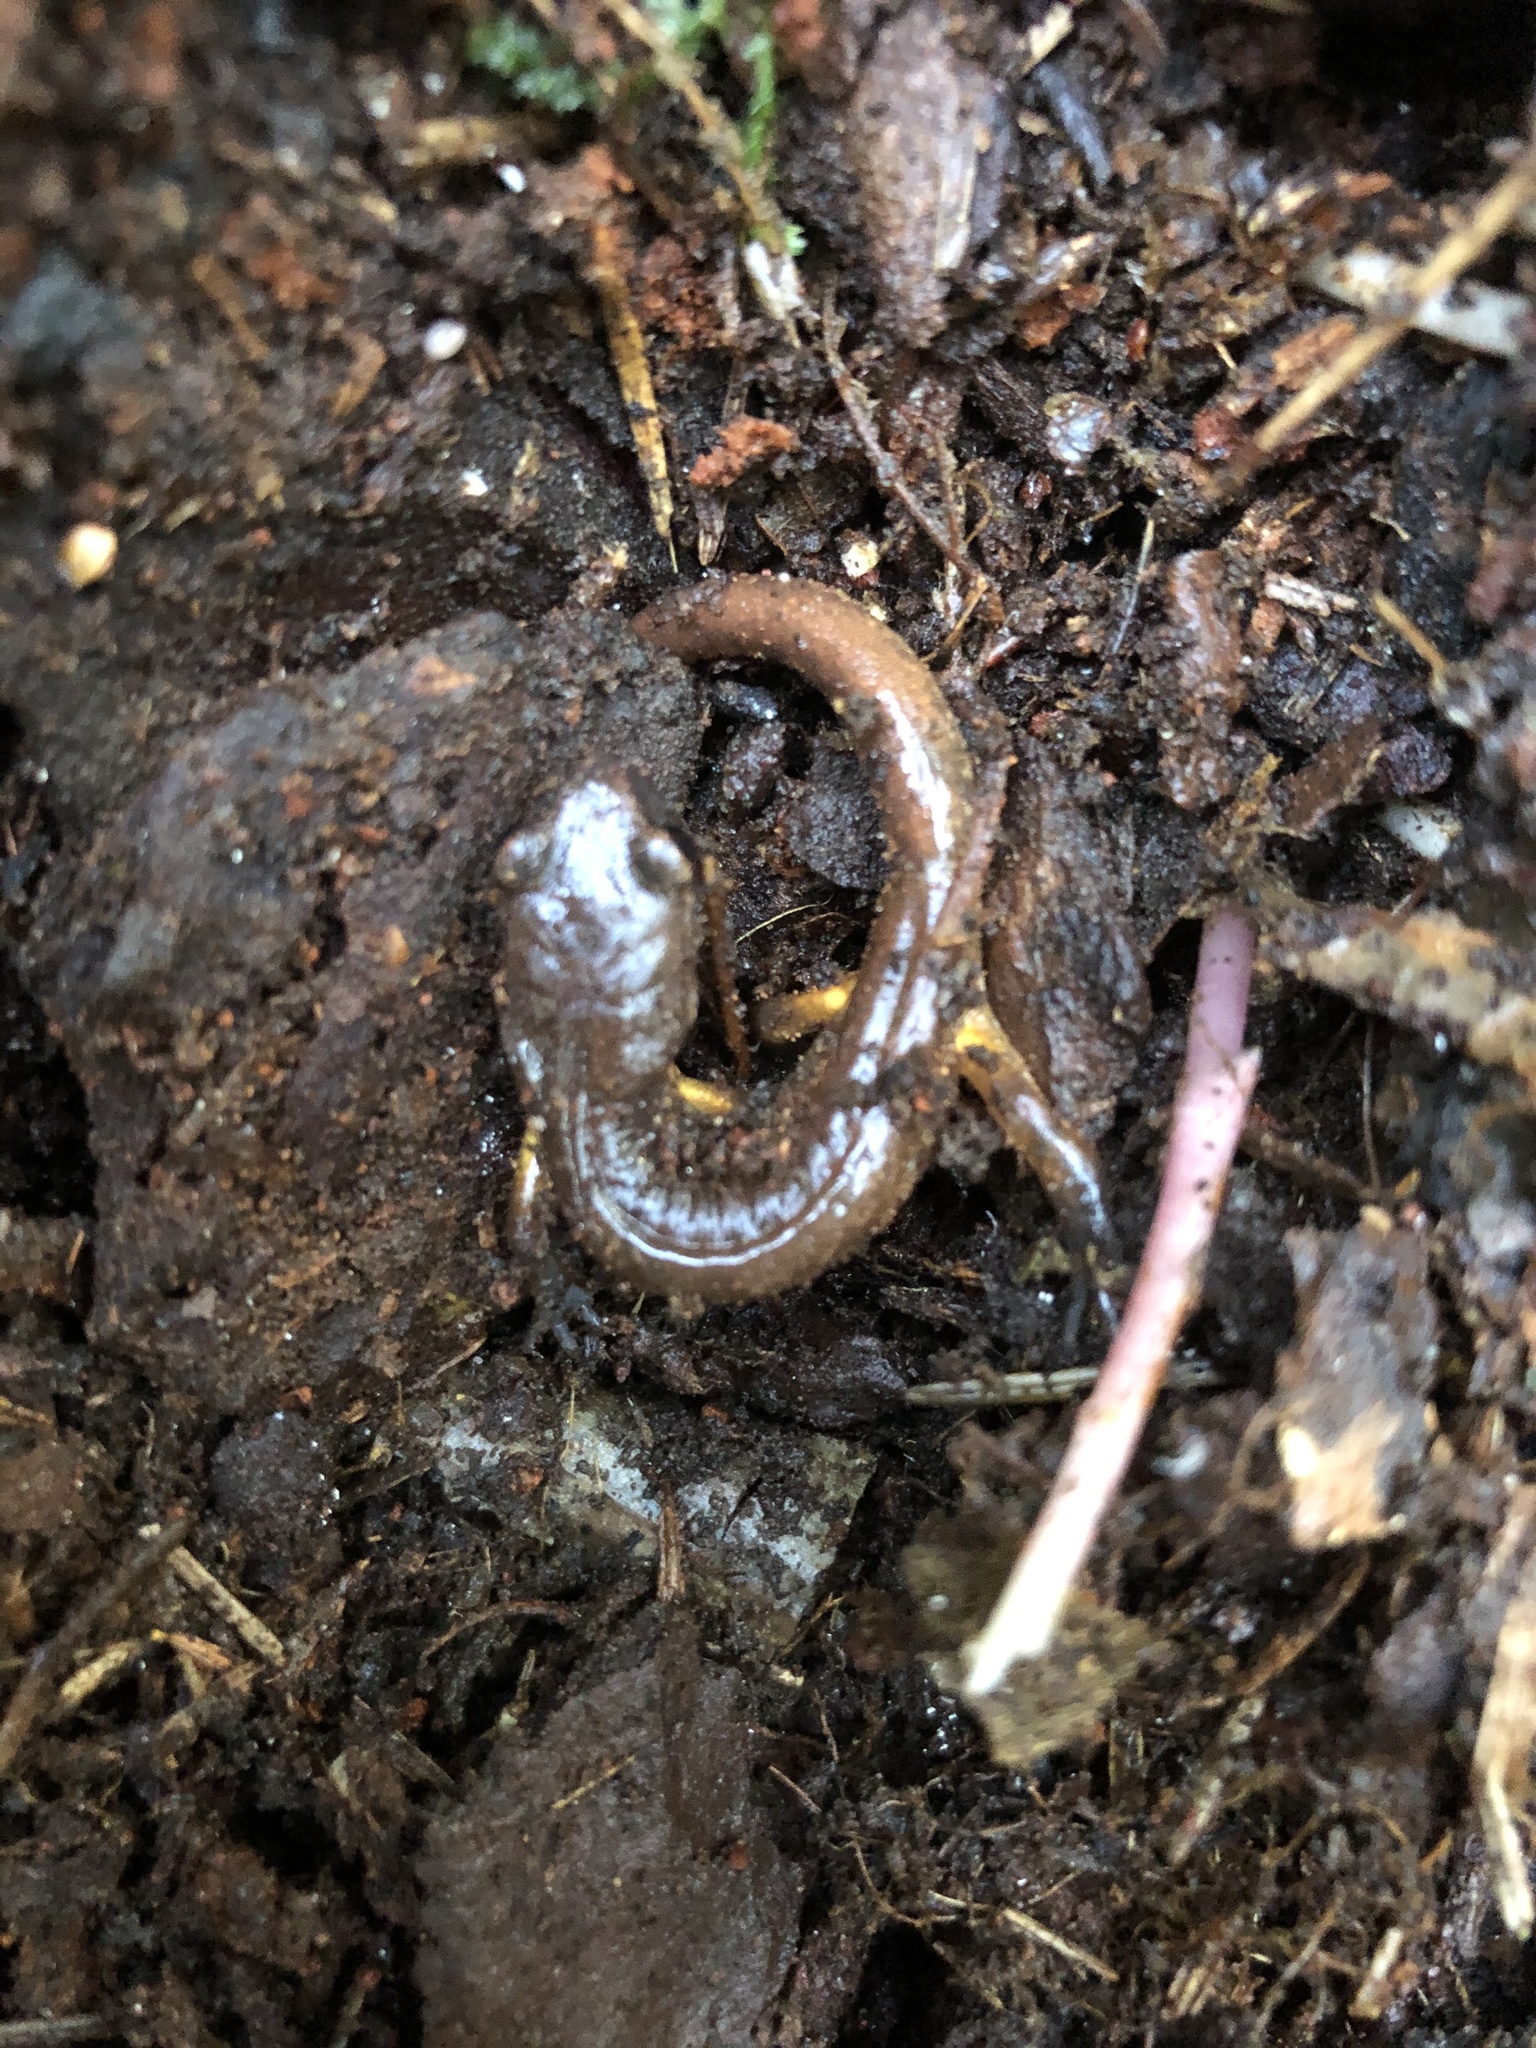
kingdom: Animalia
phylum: Chordata
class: Amphibia
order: Caudata
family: Plethodontidae
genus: Ensatina
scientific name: Ensatina eschscholtzii
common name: Ensatina
